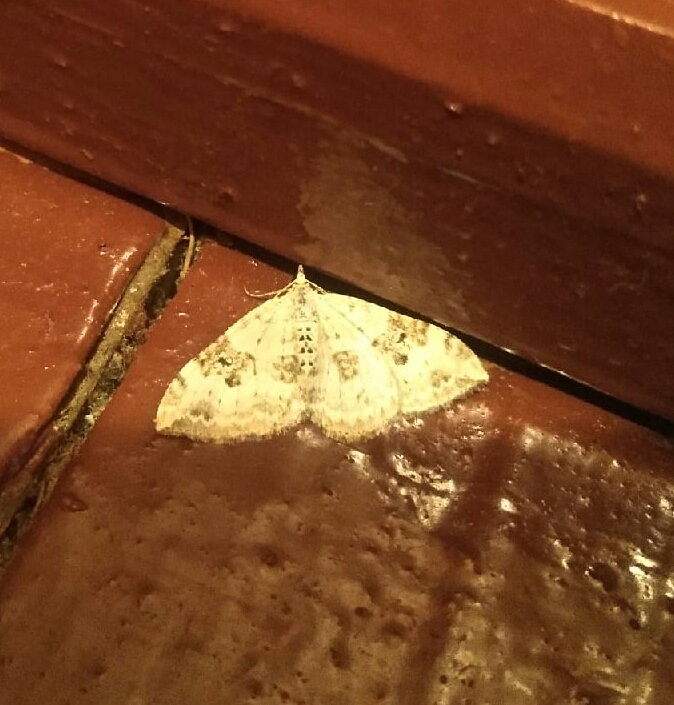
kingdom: Animalia
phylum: Arthropoda
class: Insecta
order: Lepidoptera
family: Geometridae
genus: Xanthorhoe
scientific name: Xanthorhoe montanata
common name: Silver-ground carpet
